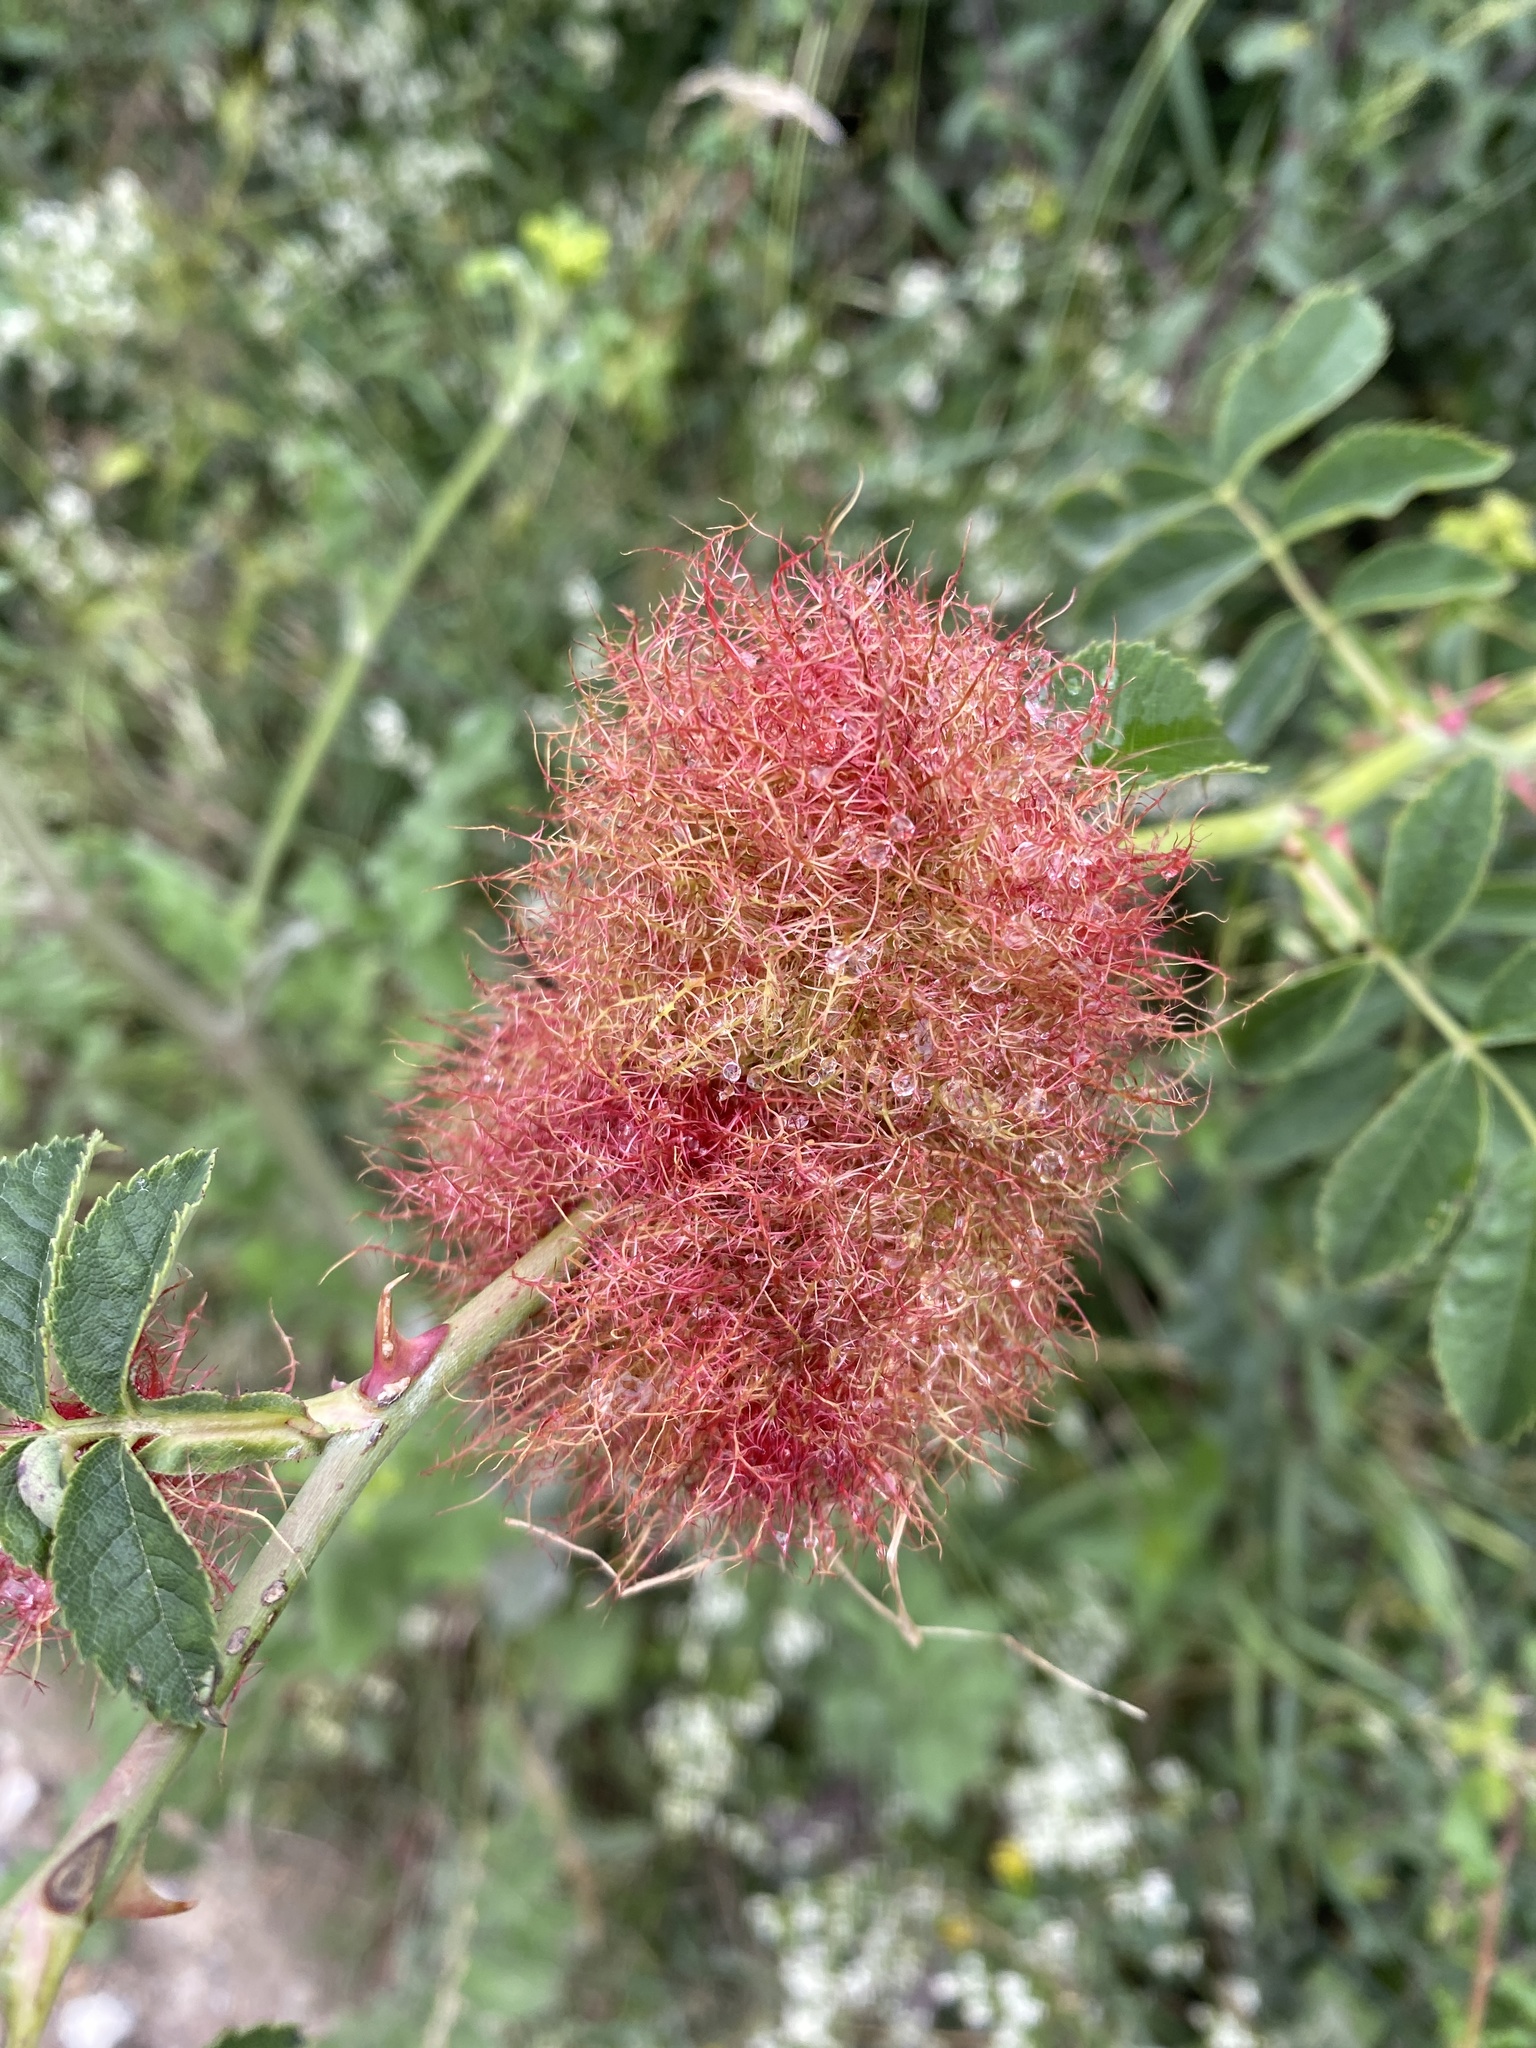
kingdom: Animalia
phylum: Arthropoda
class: Insecta
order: Hymenoptera
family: Cynipidae
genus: Diplolepis
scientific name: Diplolepis rosae
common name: Bedeguar gall
